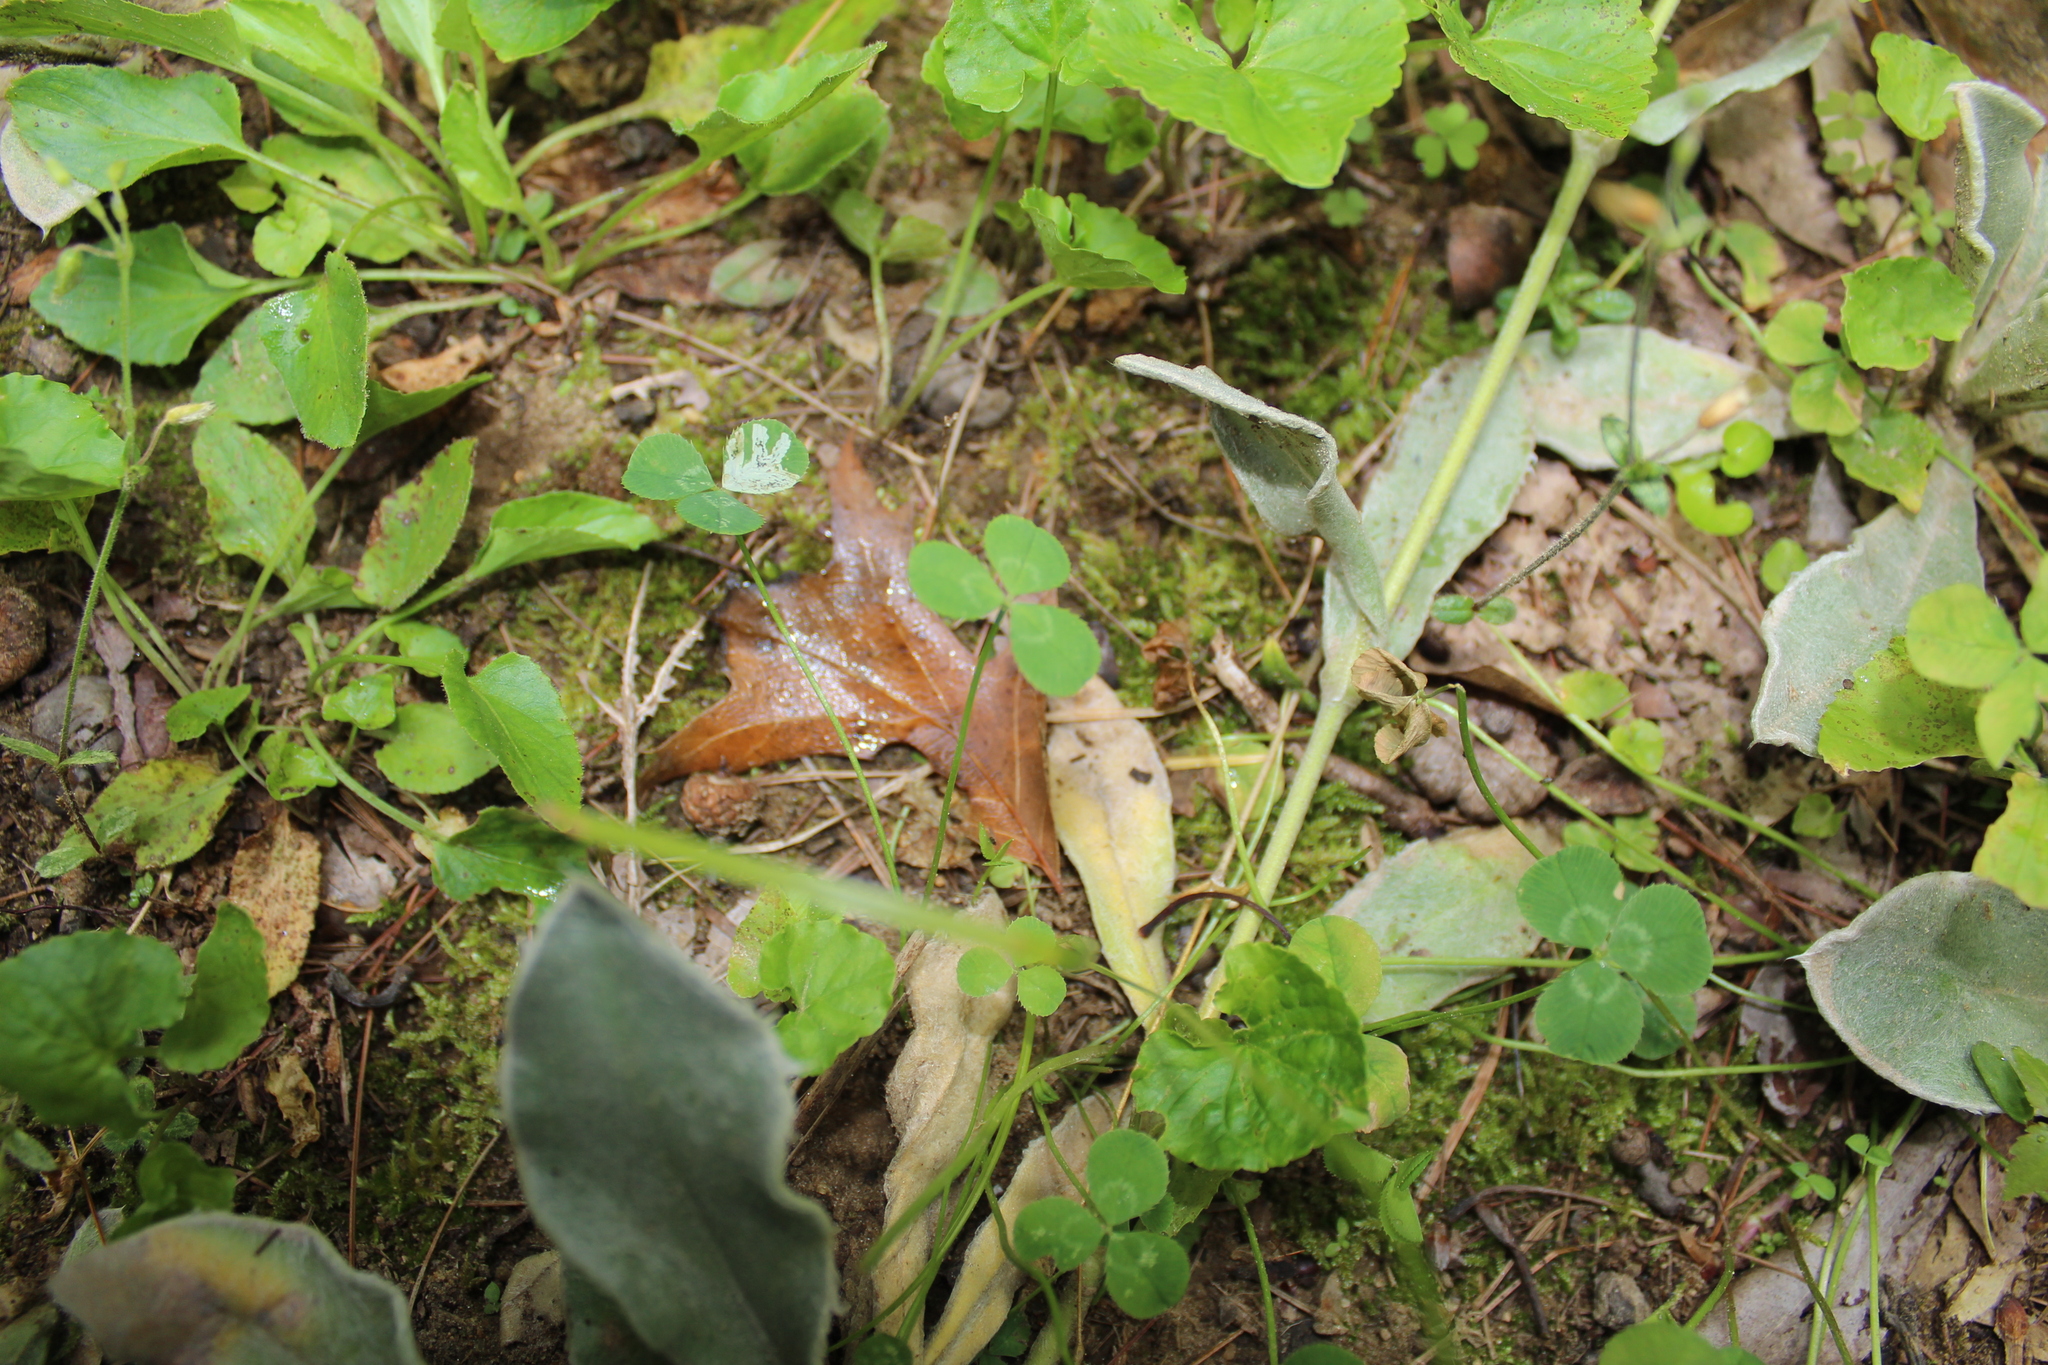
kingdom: Plantae
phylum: Tracheophyta
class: Magnoliopsida
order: Fabales
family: Fabaceae
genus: Trifolium
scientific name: Trifolium repens
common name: White clover
